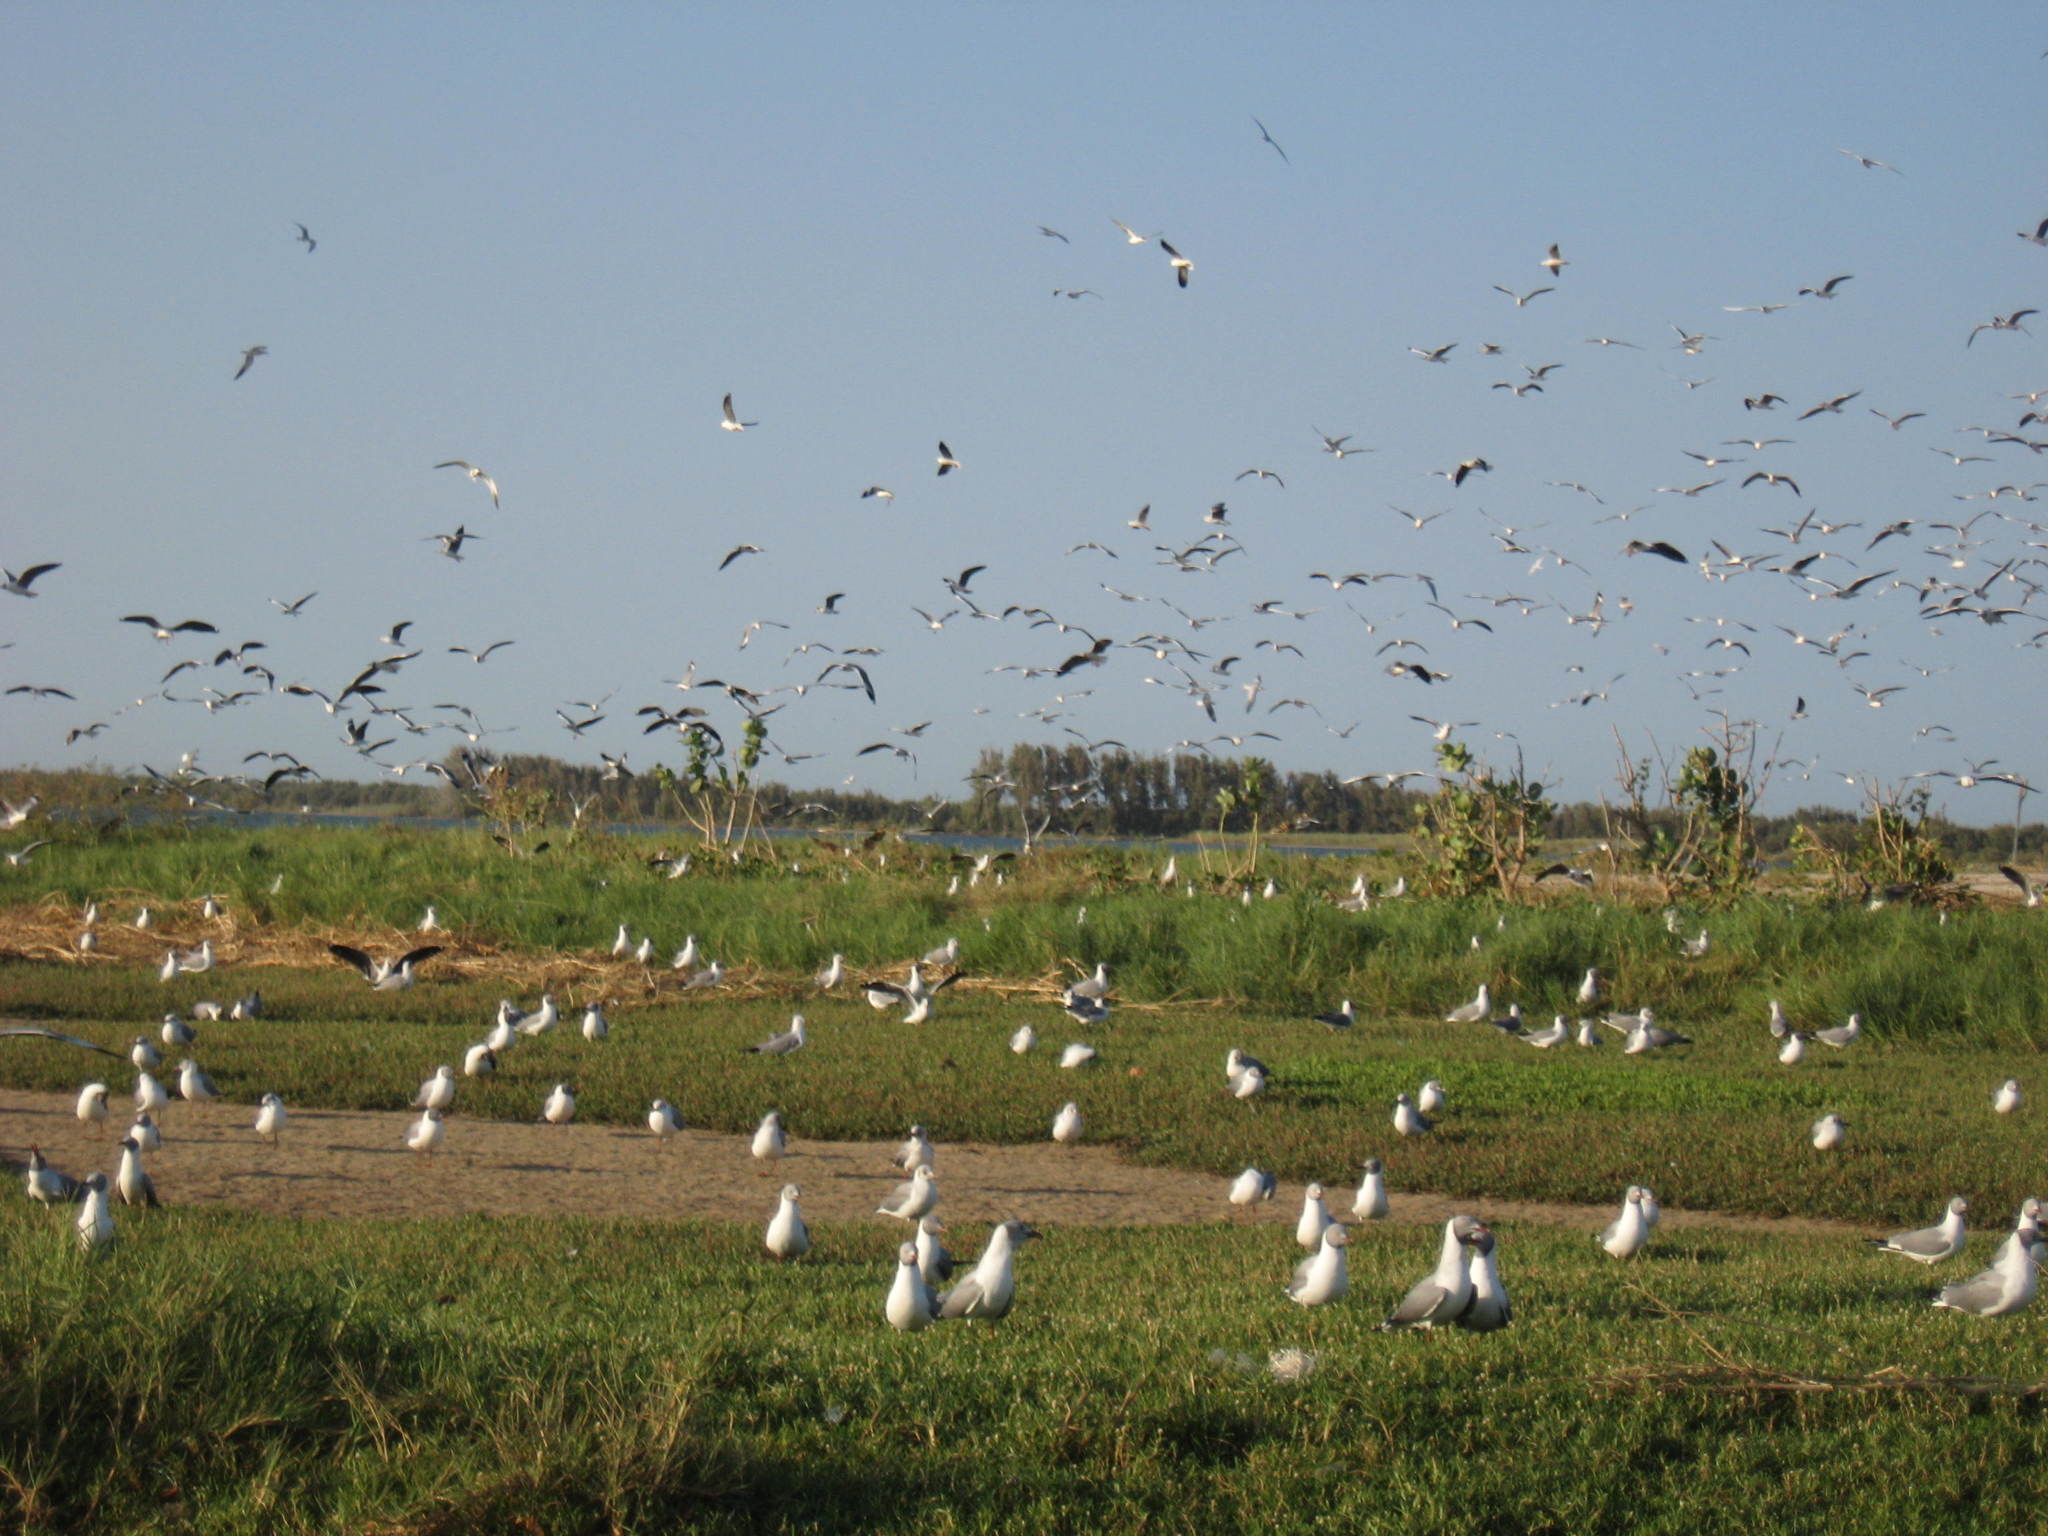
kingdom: Animalia
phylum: Chordata
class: Aves
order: Charadriiformes
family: Laridae
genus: Chroicocephalus
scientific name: Chroicocephalus cirrocephalus
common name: Grey-headed gull
